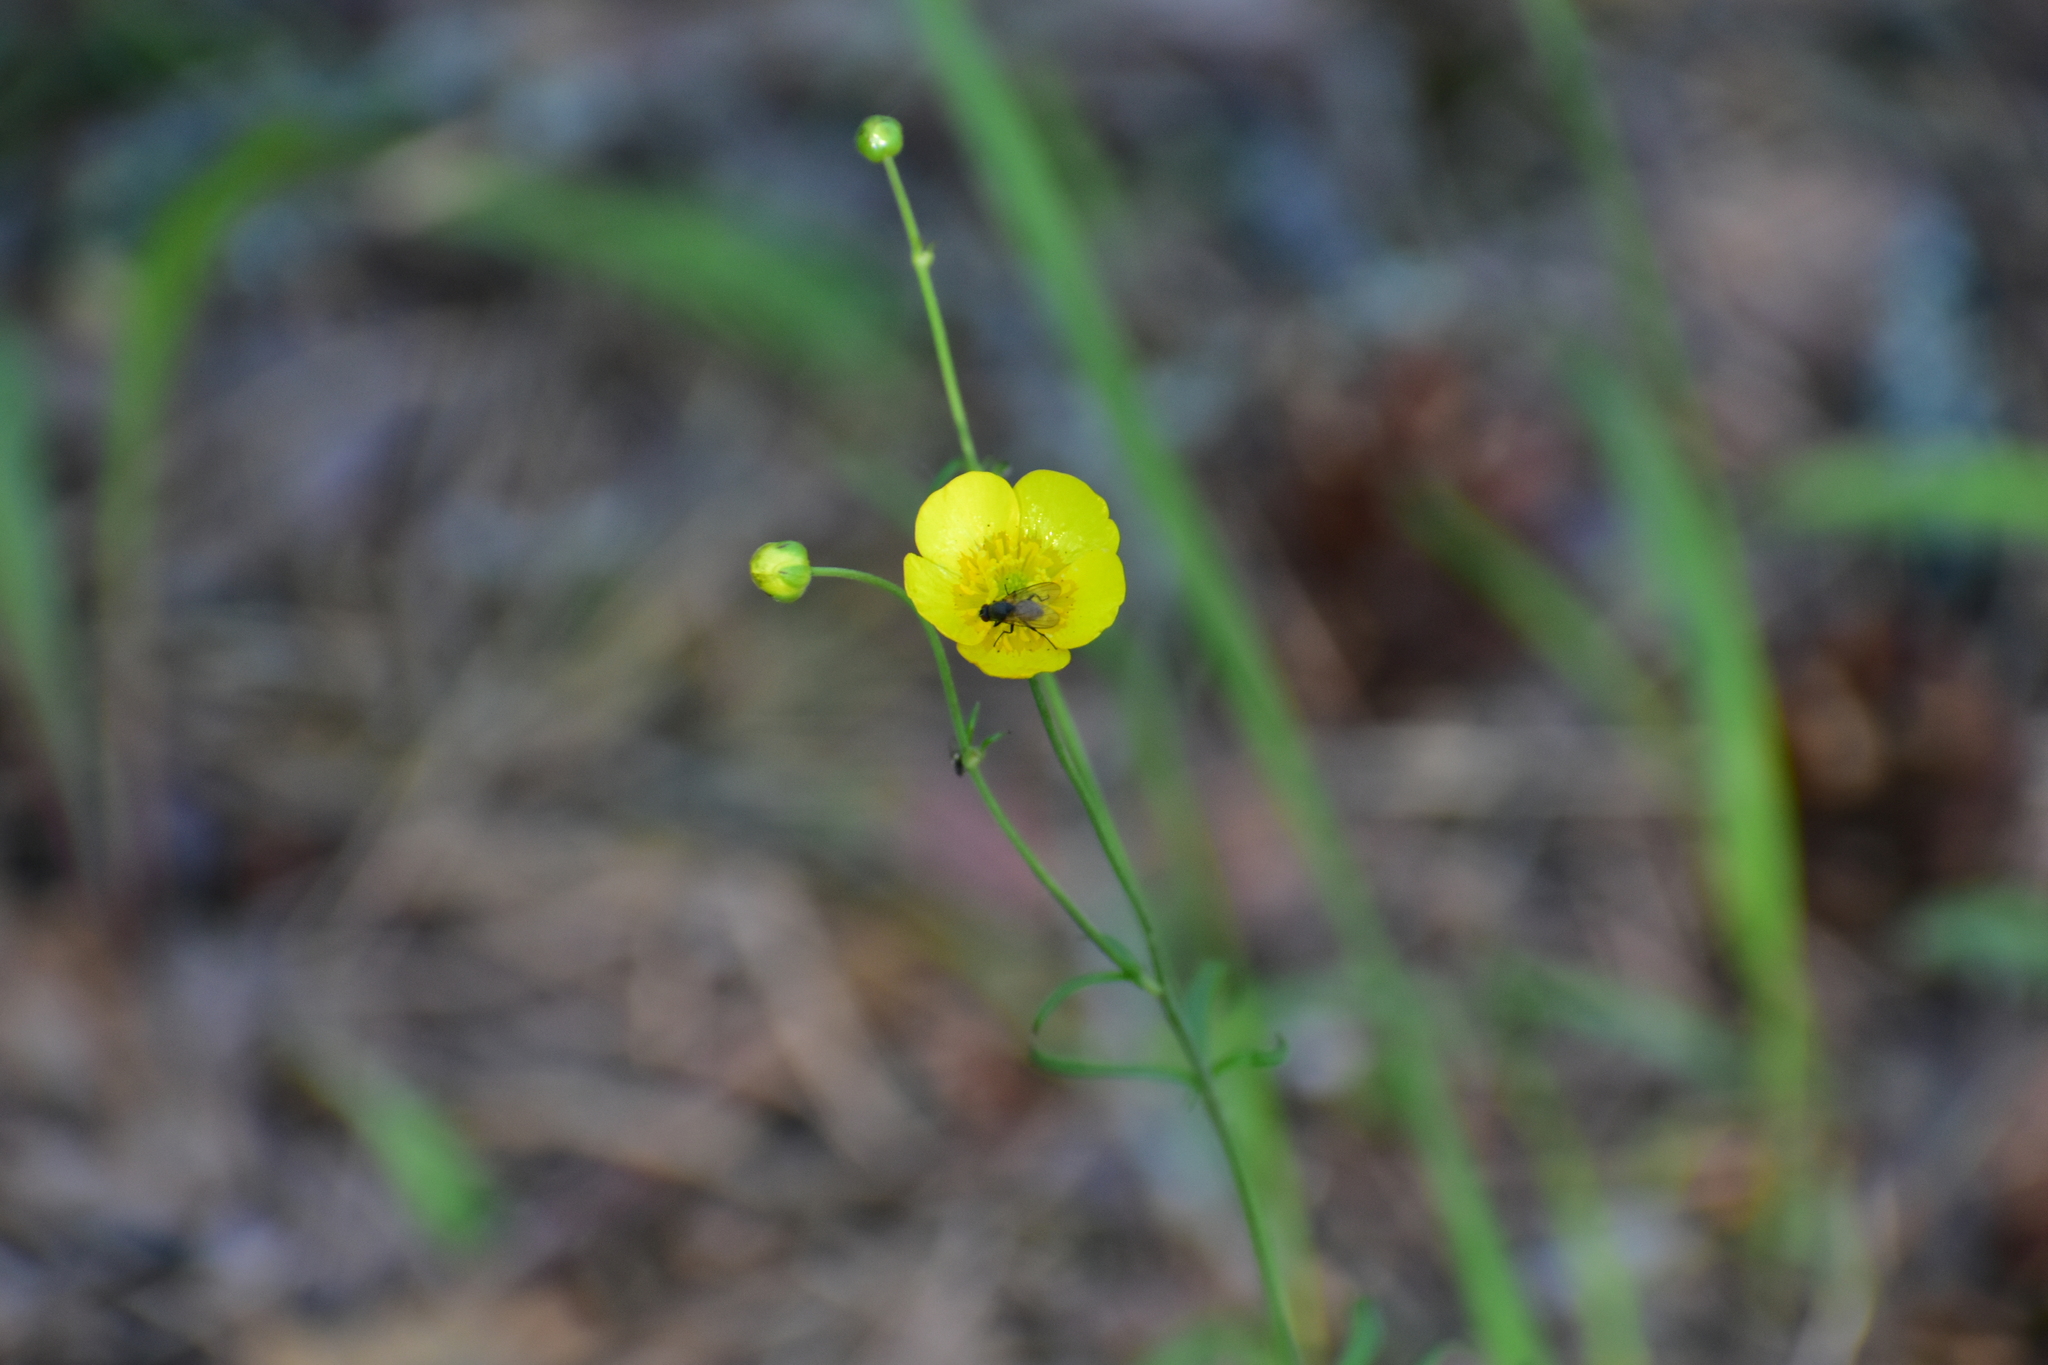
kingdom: Plantae
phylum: Tracheophyta
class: Magnoliopsida
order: Ranunculales
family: Ranunculaceae
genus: Ranunculus
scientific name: Ranunculus acris
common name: Meadow buttercup
